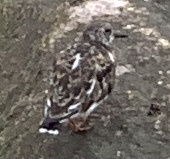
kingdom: Animalia
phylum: Chordata
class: Aves
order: Charadriiformes
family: Scolopacidae
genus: Arenaria
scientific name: Arenaria interpres
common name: Ruddy turnstone
